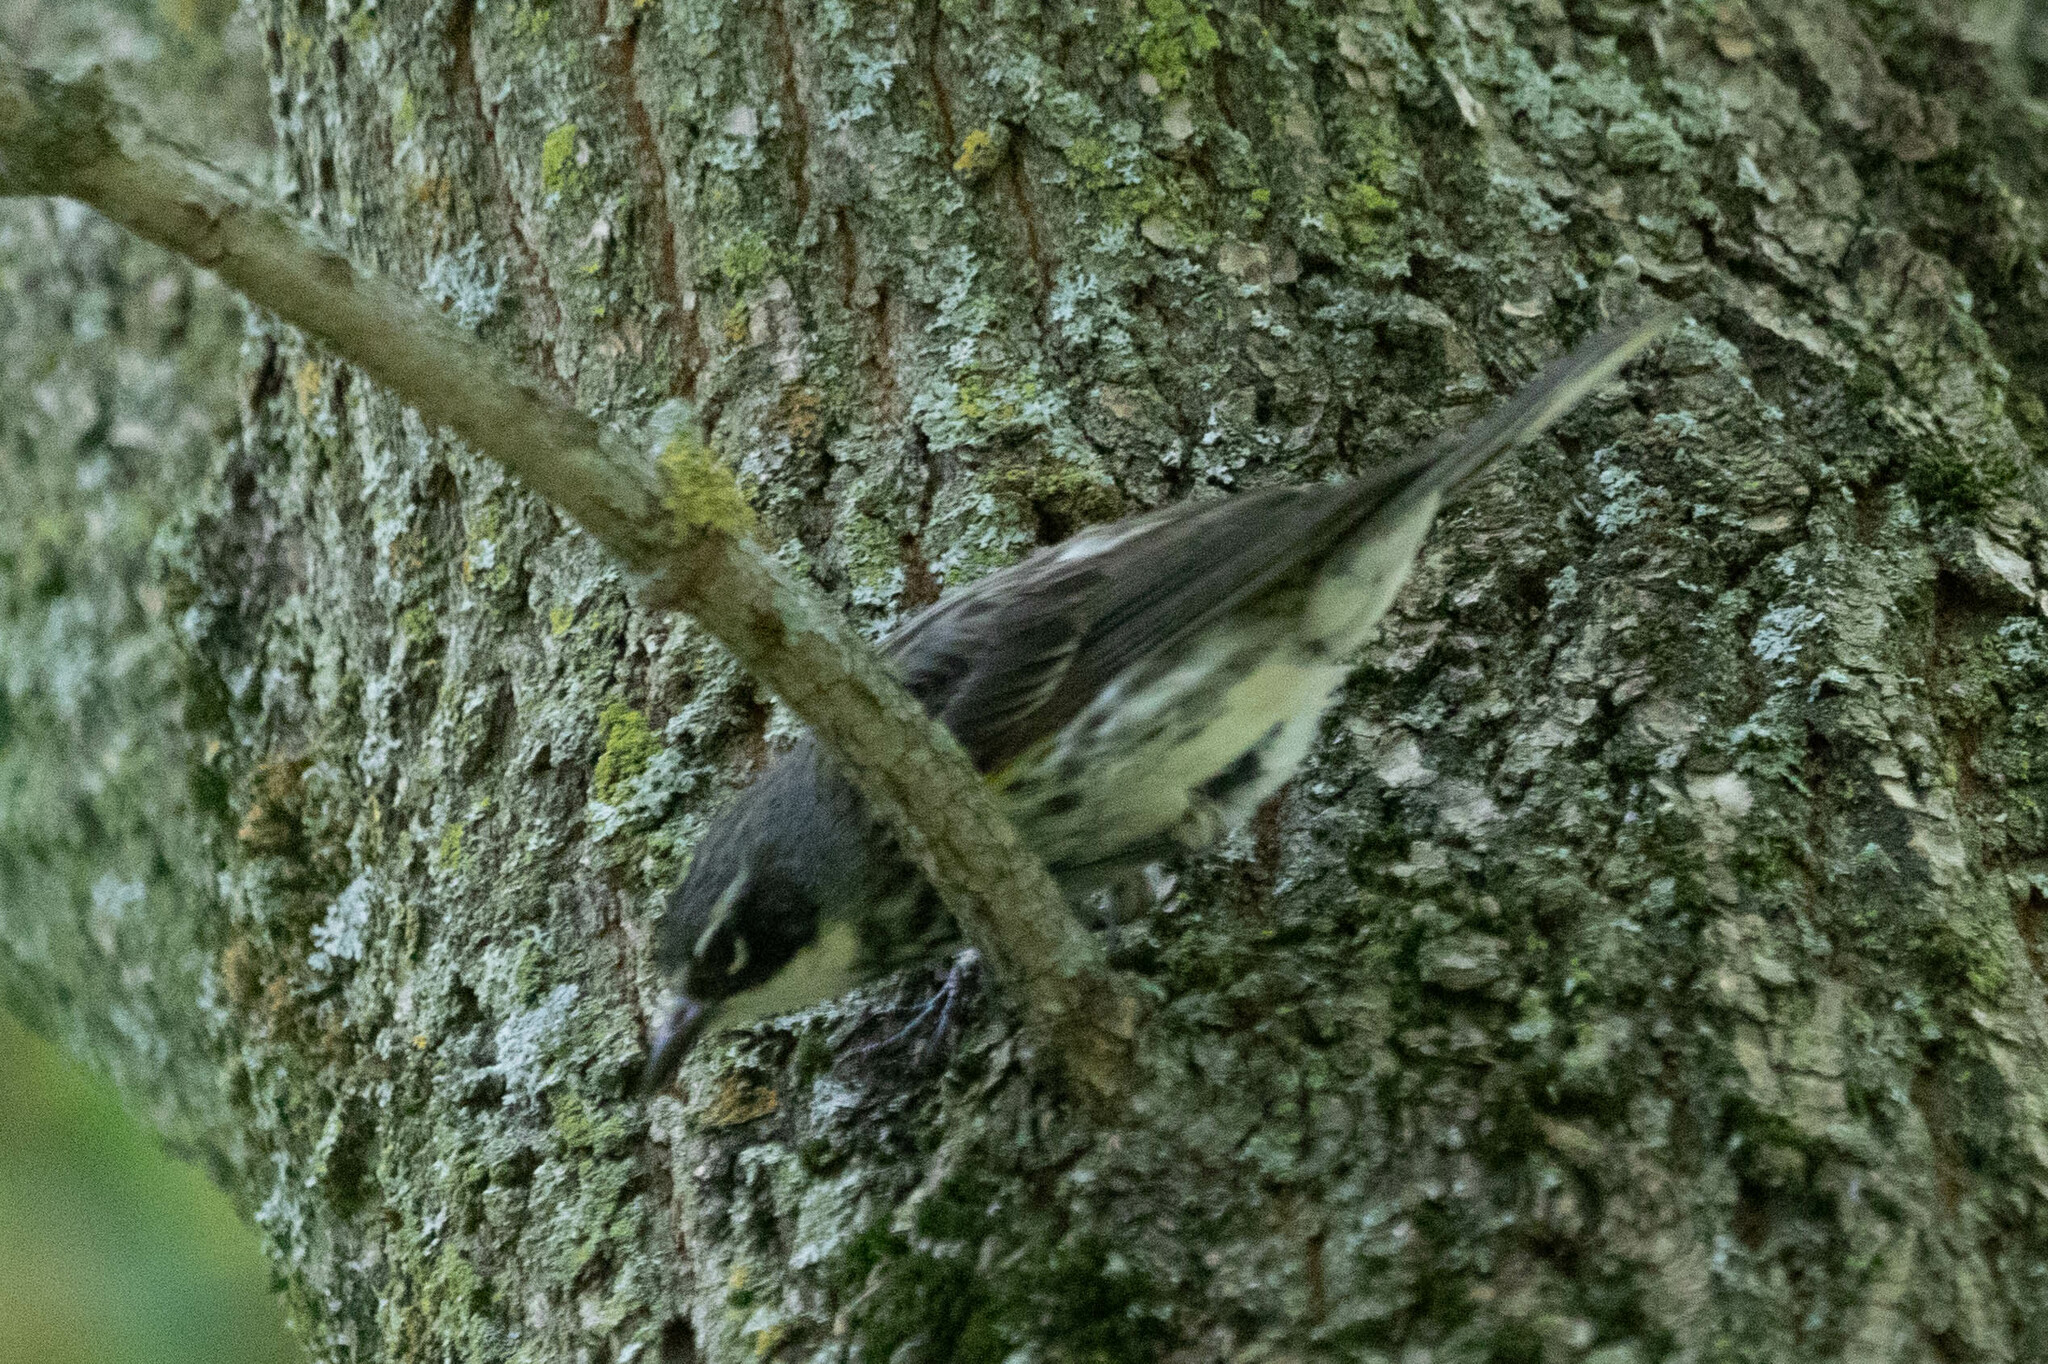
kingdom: Animalia
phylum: Chordata
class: Aves
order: Passeriformes
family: Parulidae
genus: Setophaga
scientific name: Setophaga coronata
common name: Myrtle warbler
